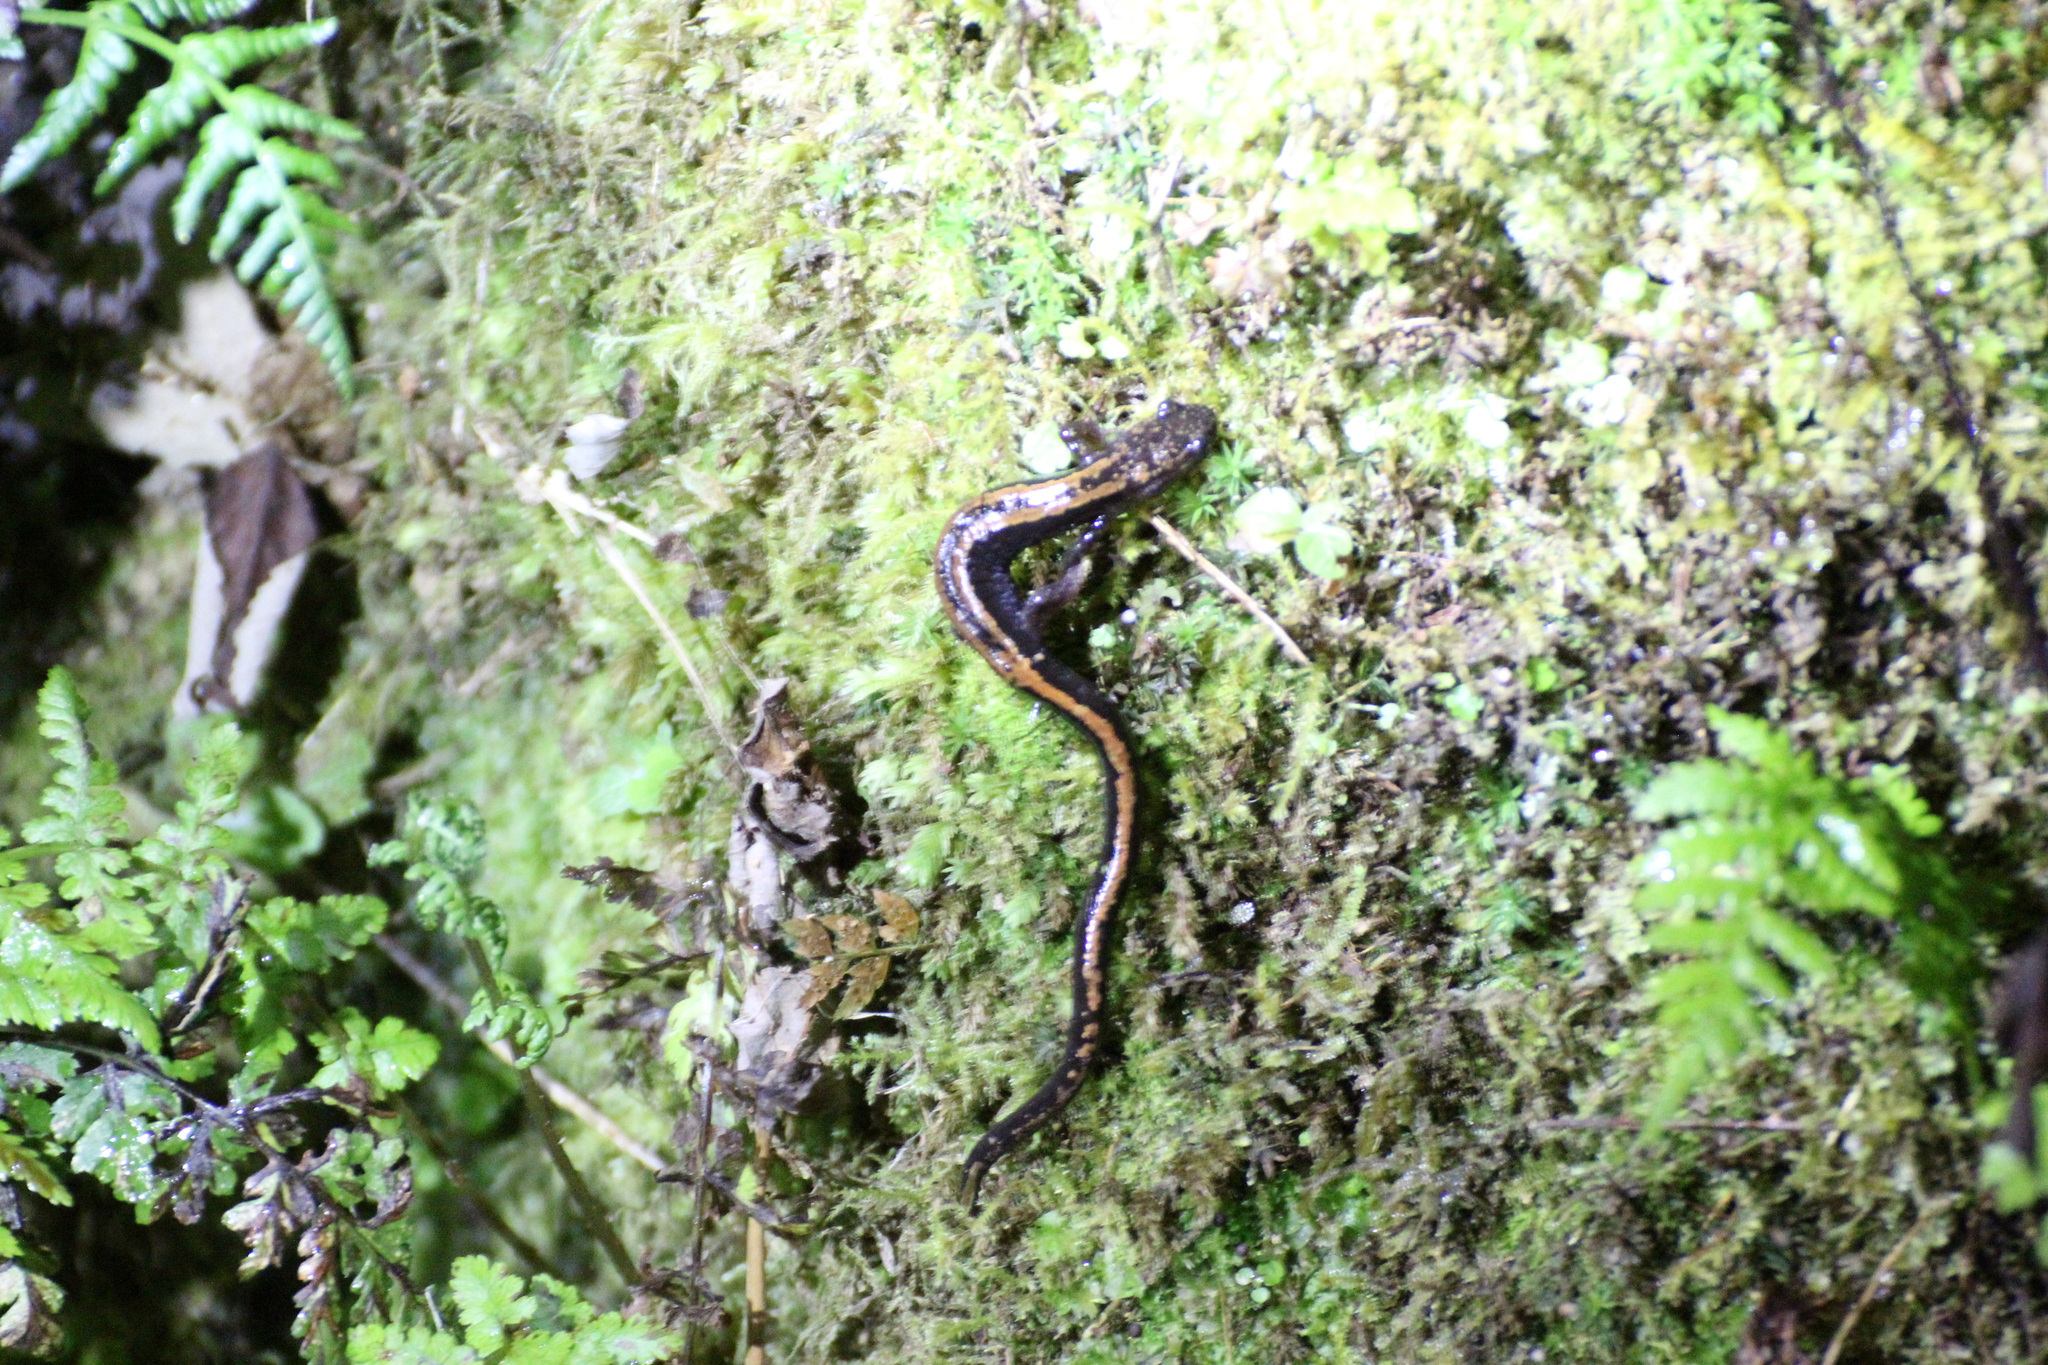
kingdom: Animalia
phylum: Chordata
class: Amphibia
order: Caudata
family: Salamandridae
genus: Chioglossa
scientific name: Chioglossa lusitanica
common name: Gold-striped salamander
